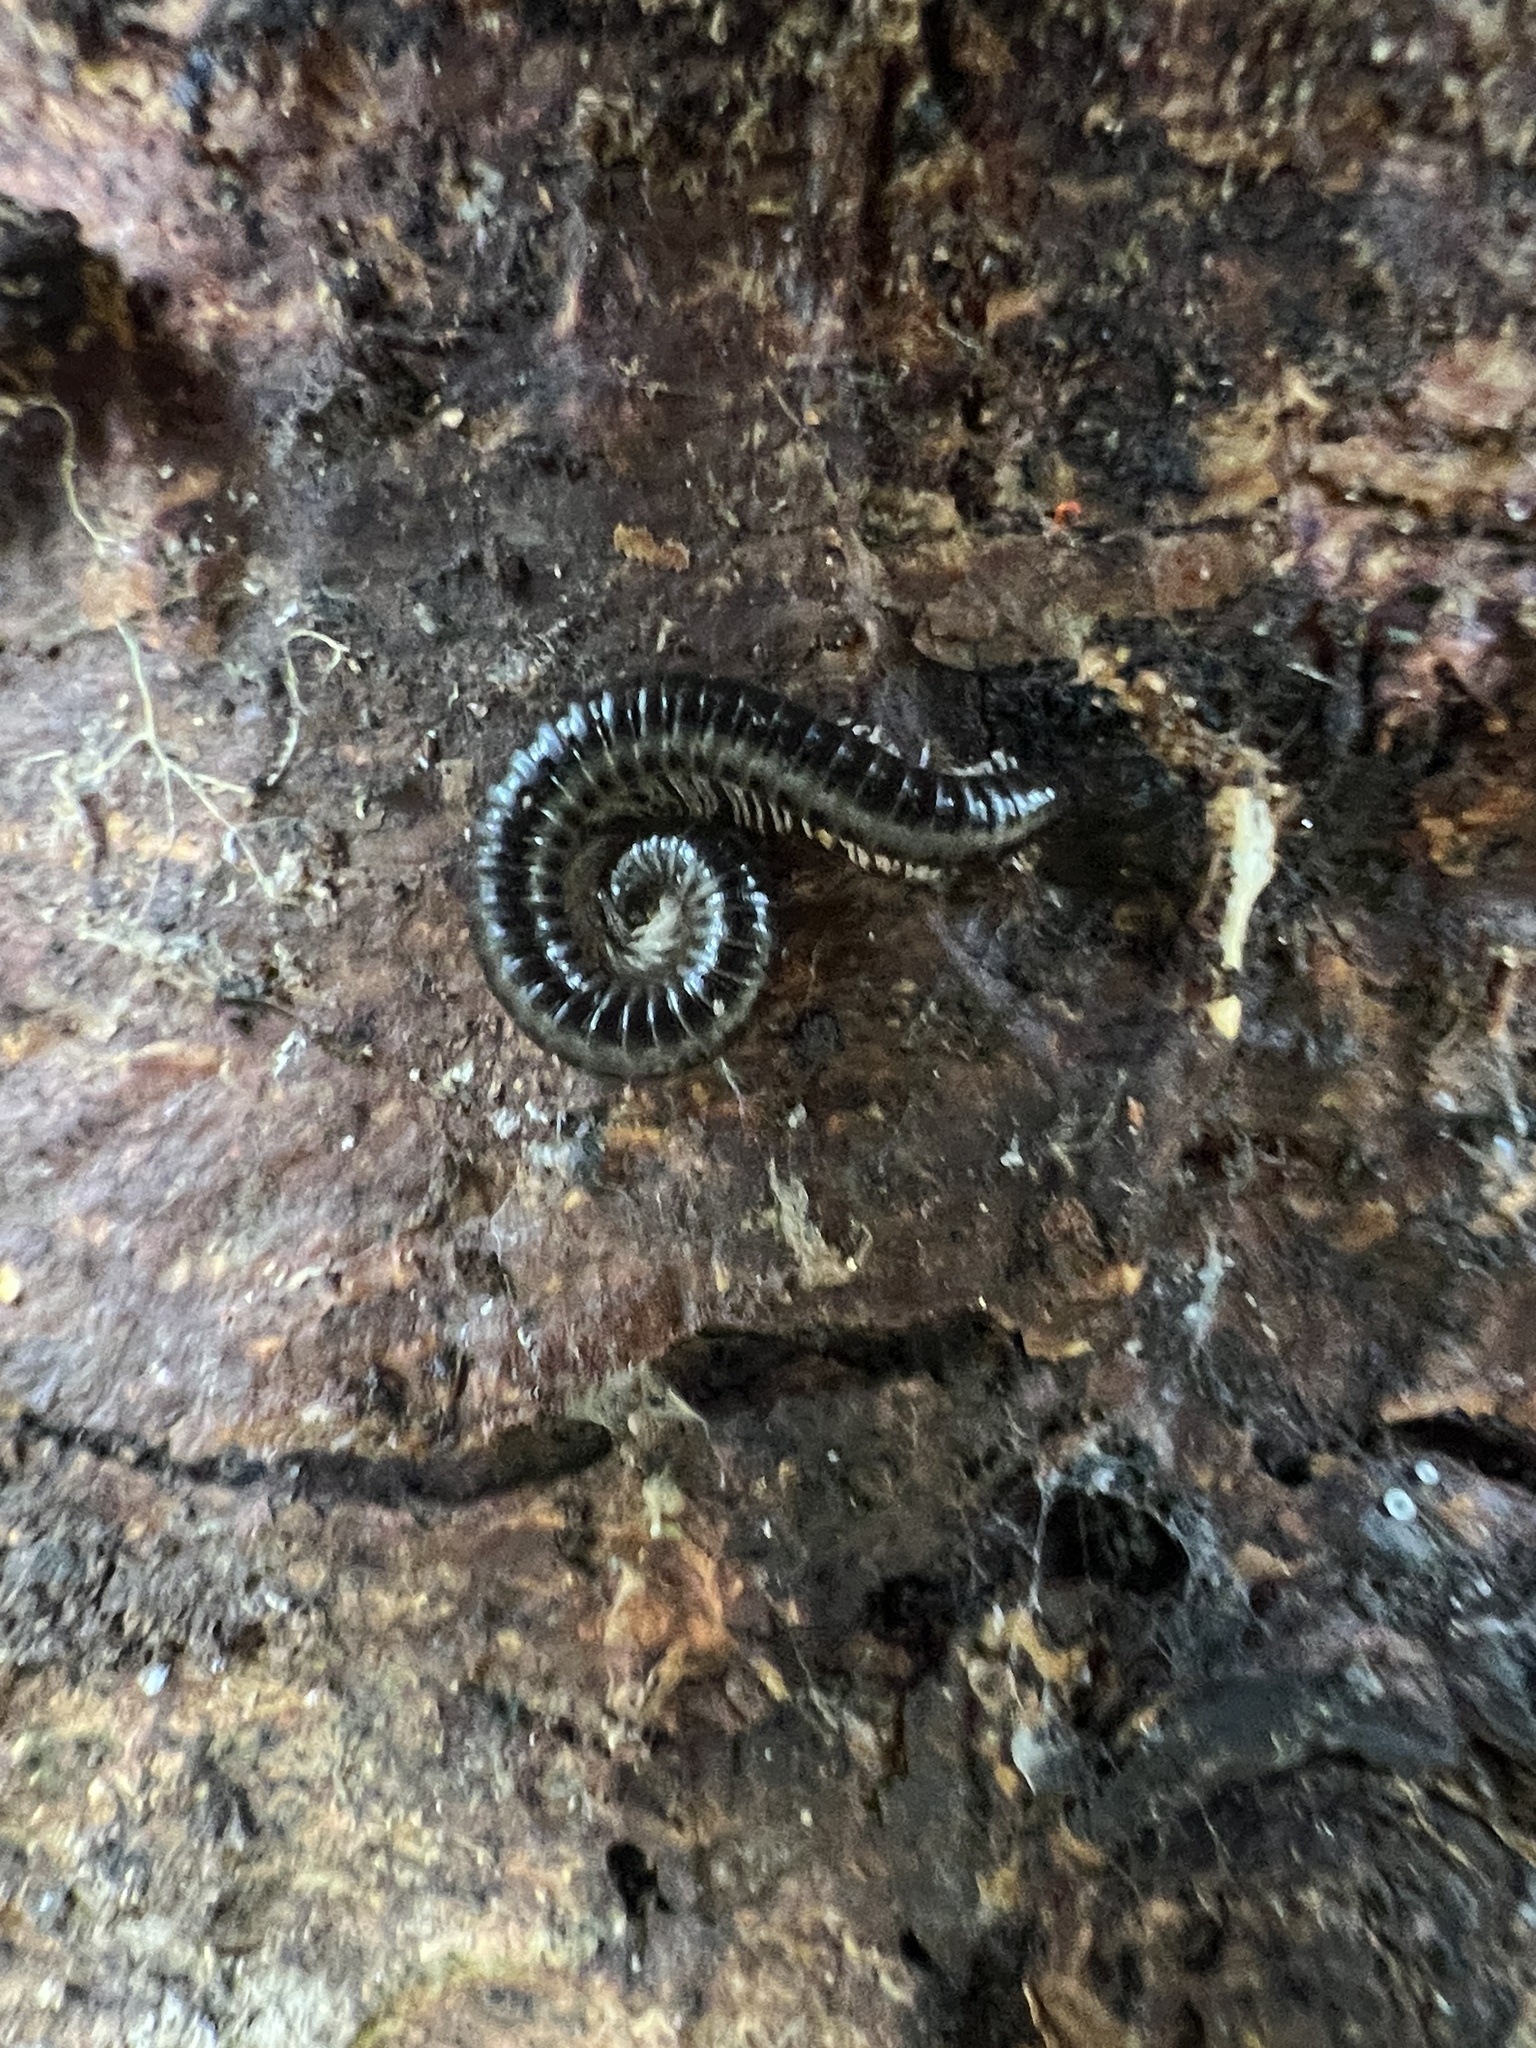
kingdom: Animalia
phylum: Arthropoda
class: Diplopoda
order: Julida
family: Julidae
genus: Tachypodoiulus
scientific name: Tachypodoiulus niger
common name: White-legged snake millipede
